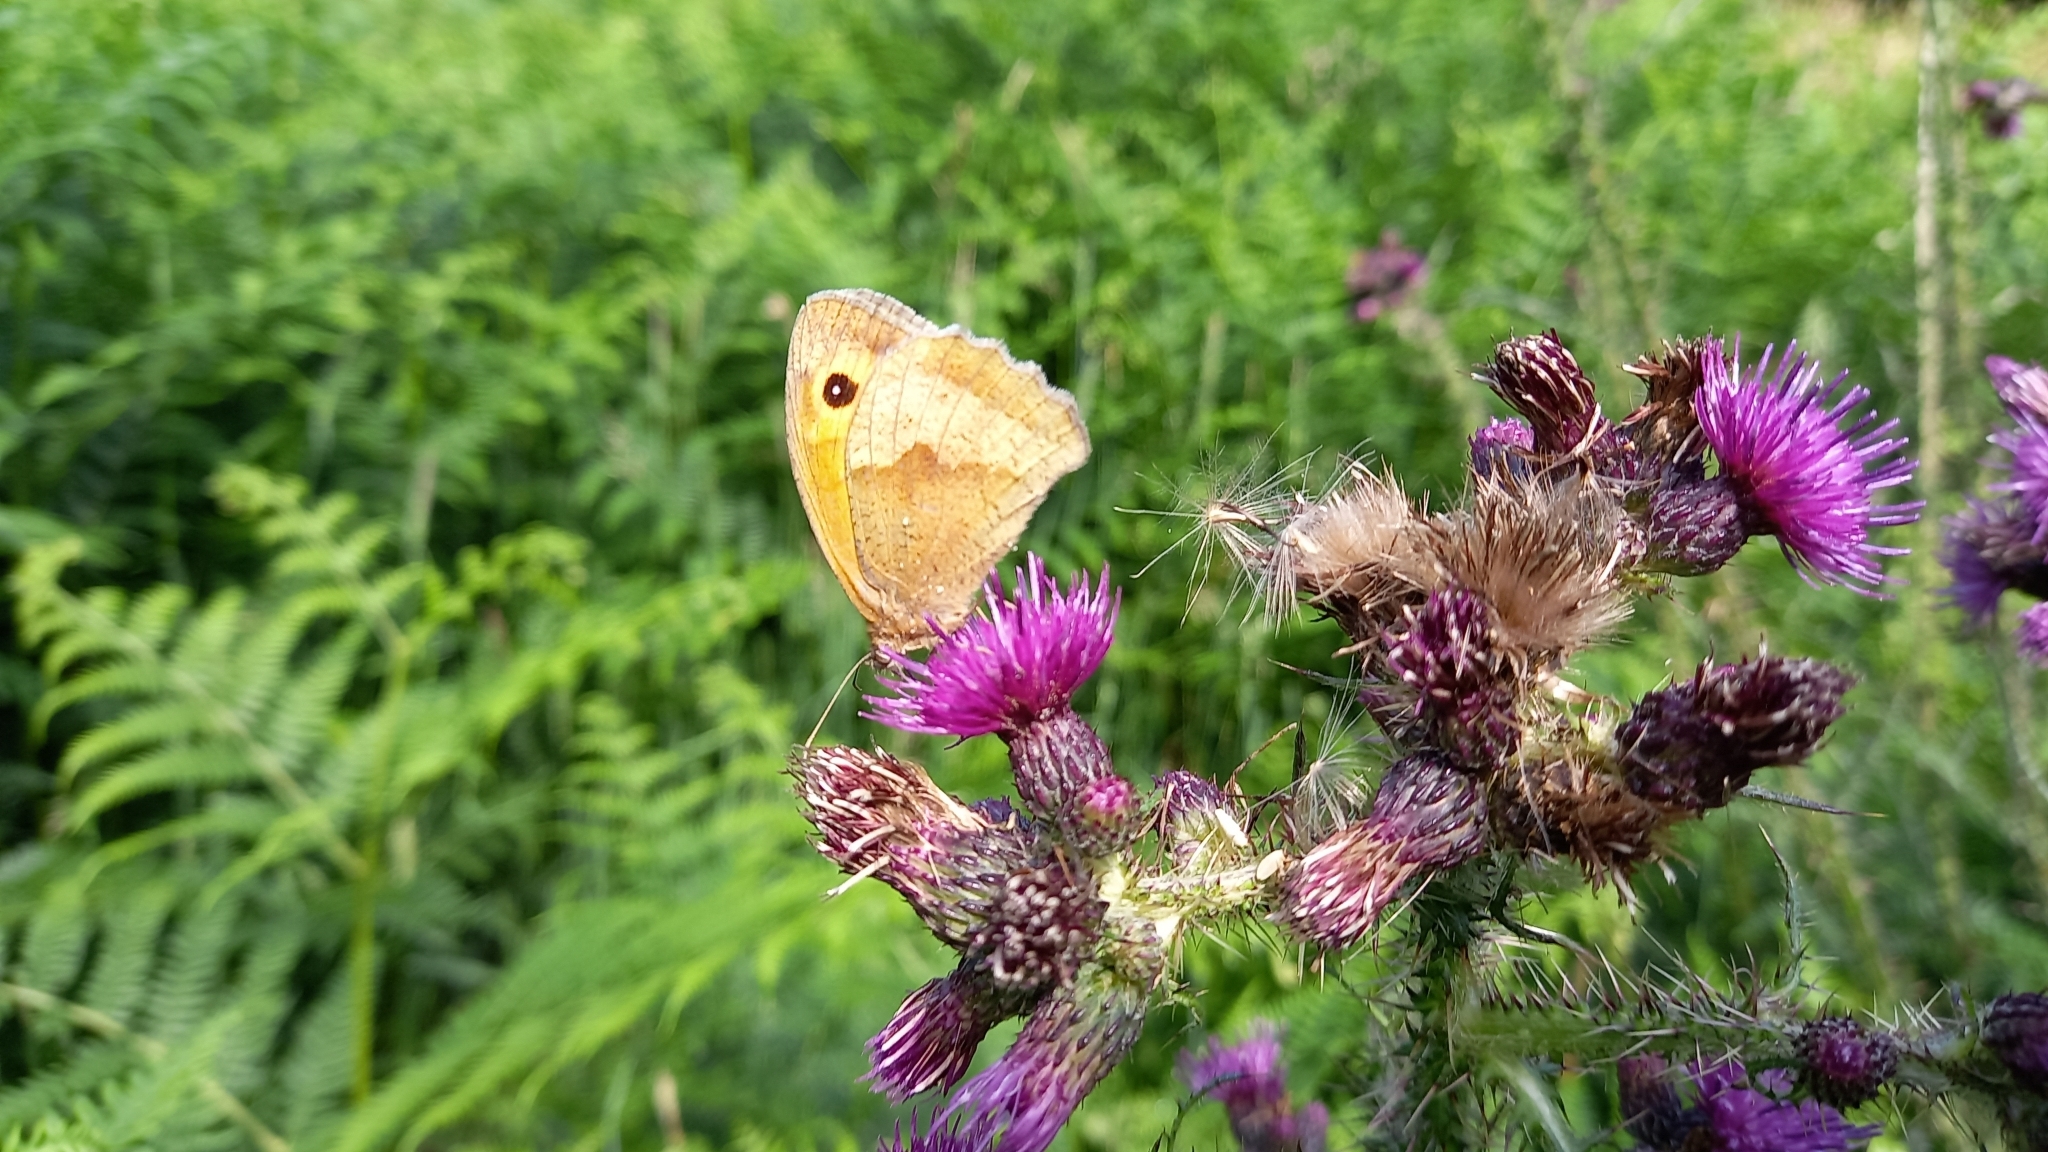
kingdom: Animalia
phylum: Arthropoda
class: Insecta
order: Lepidoptera
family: Nymphalidae
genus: Maniola
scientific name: Maniola jurtina
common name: Meadow brown
